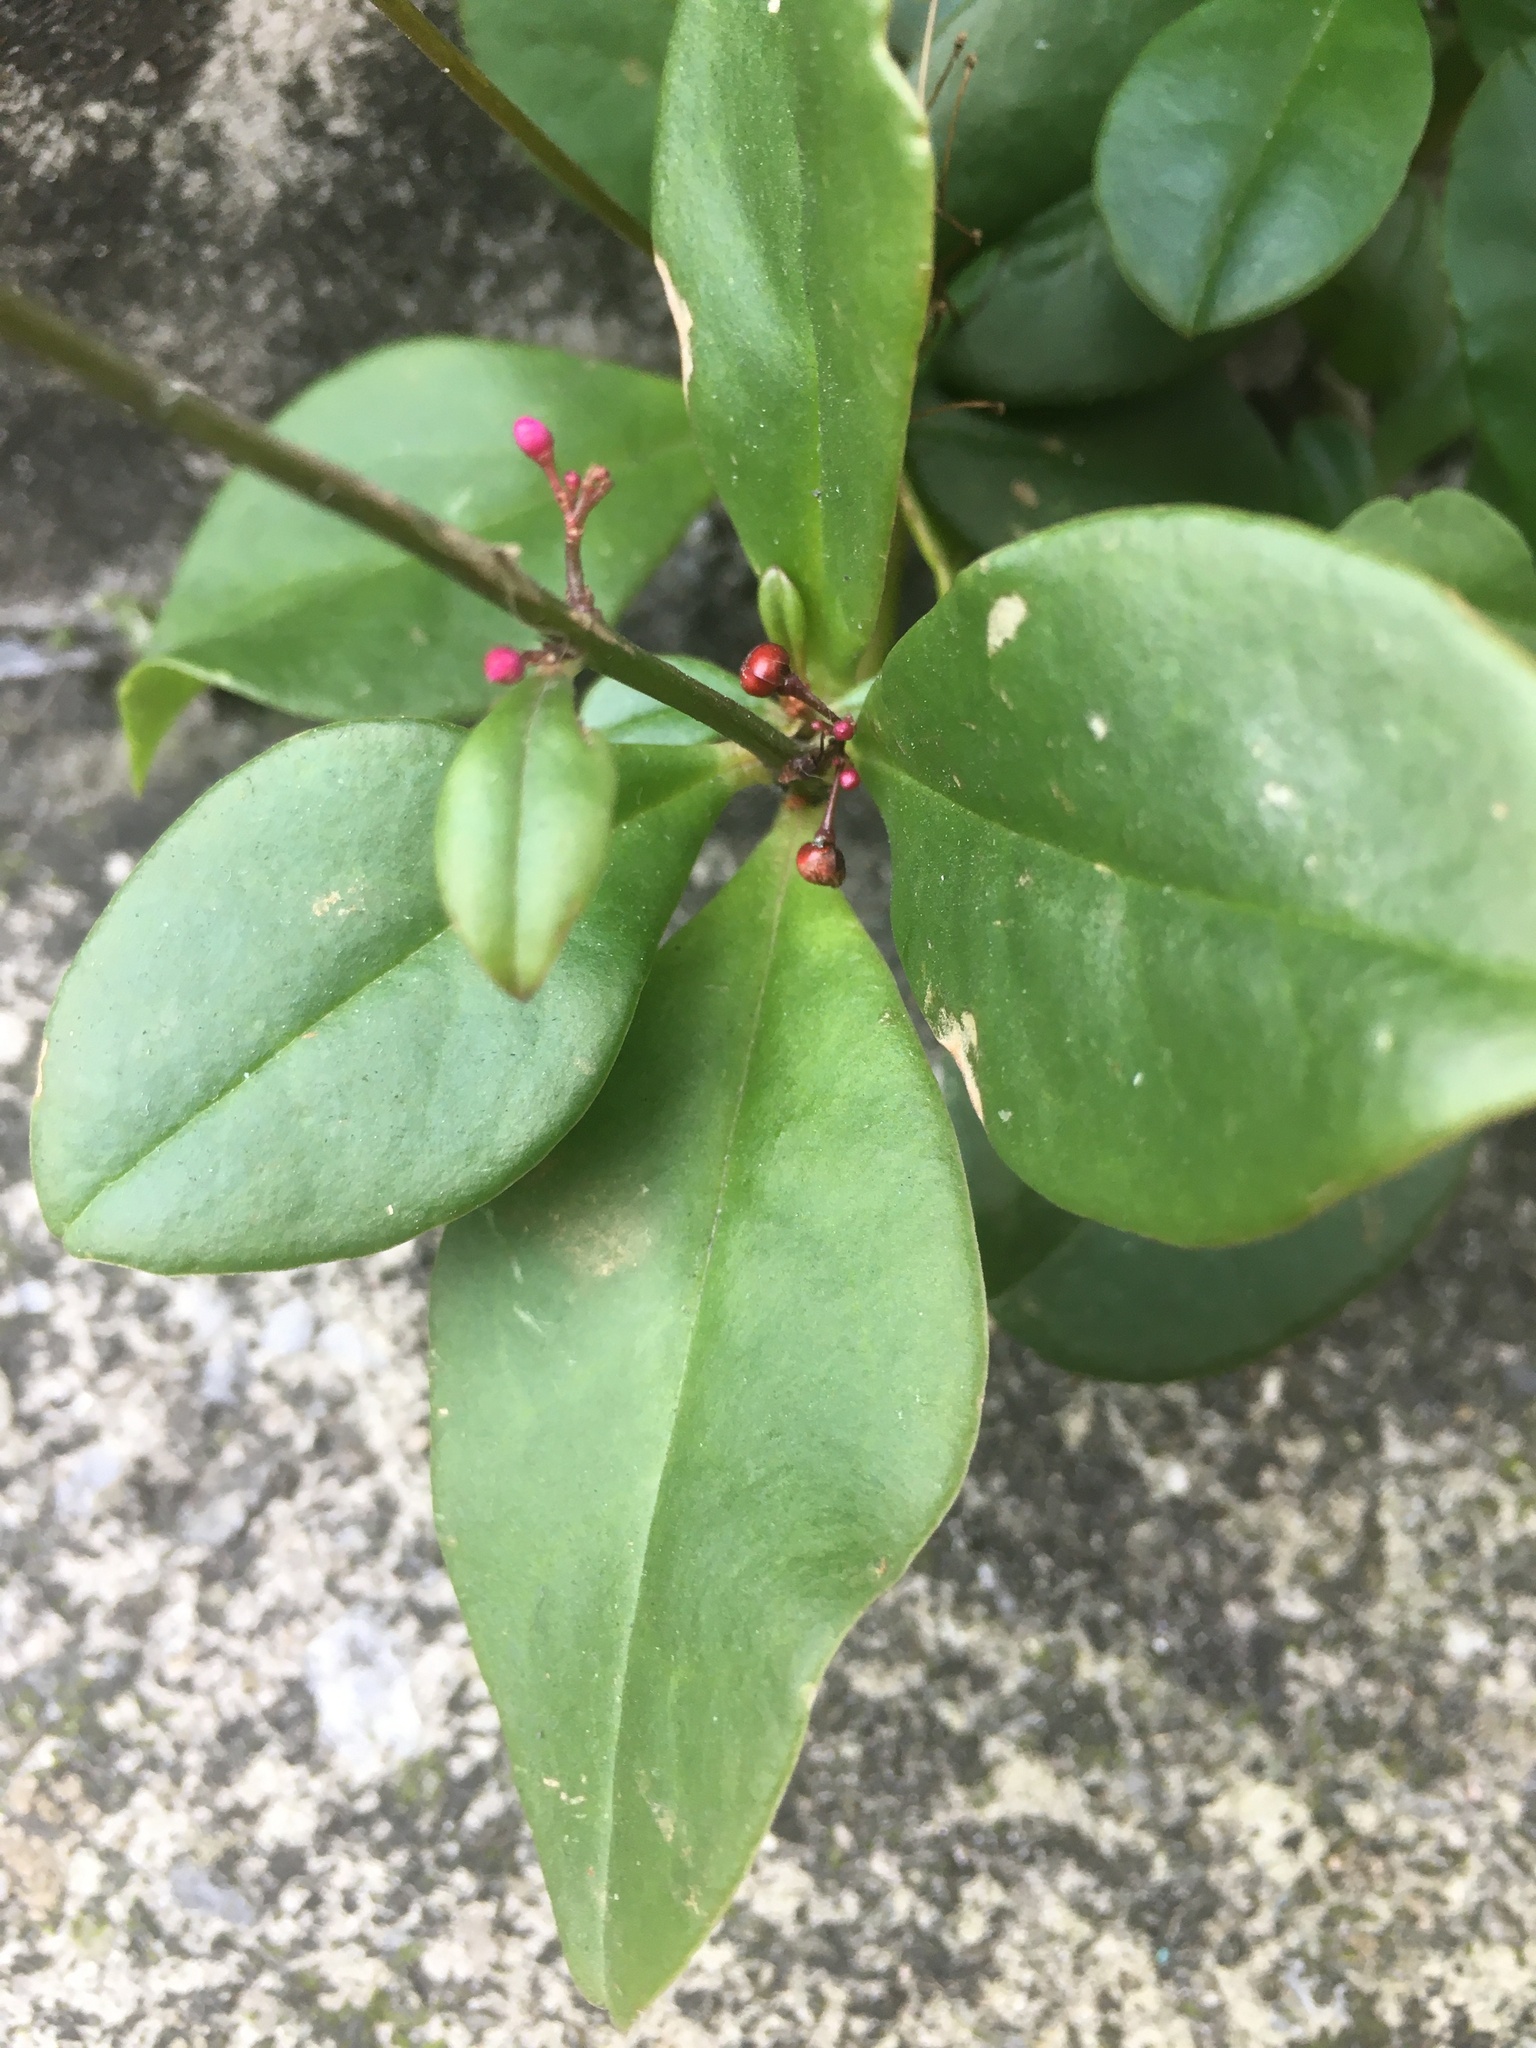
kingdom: Plantae
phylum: Tracheophyta
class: Magnoliopsida
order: Caryophyllales
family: Talinaceae
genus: Talinum
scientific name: Talinum paniculatum
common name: Jewels of opar
